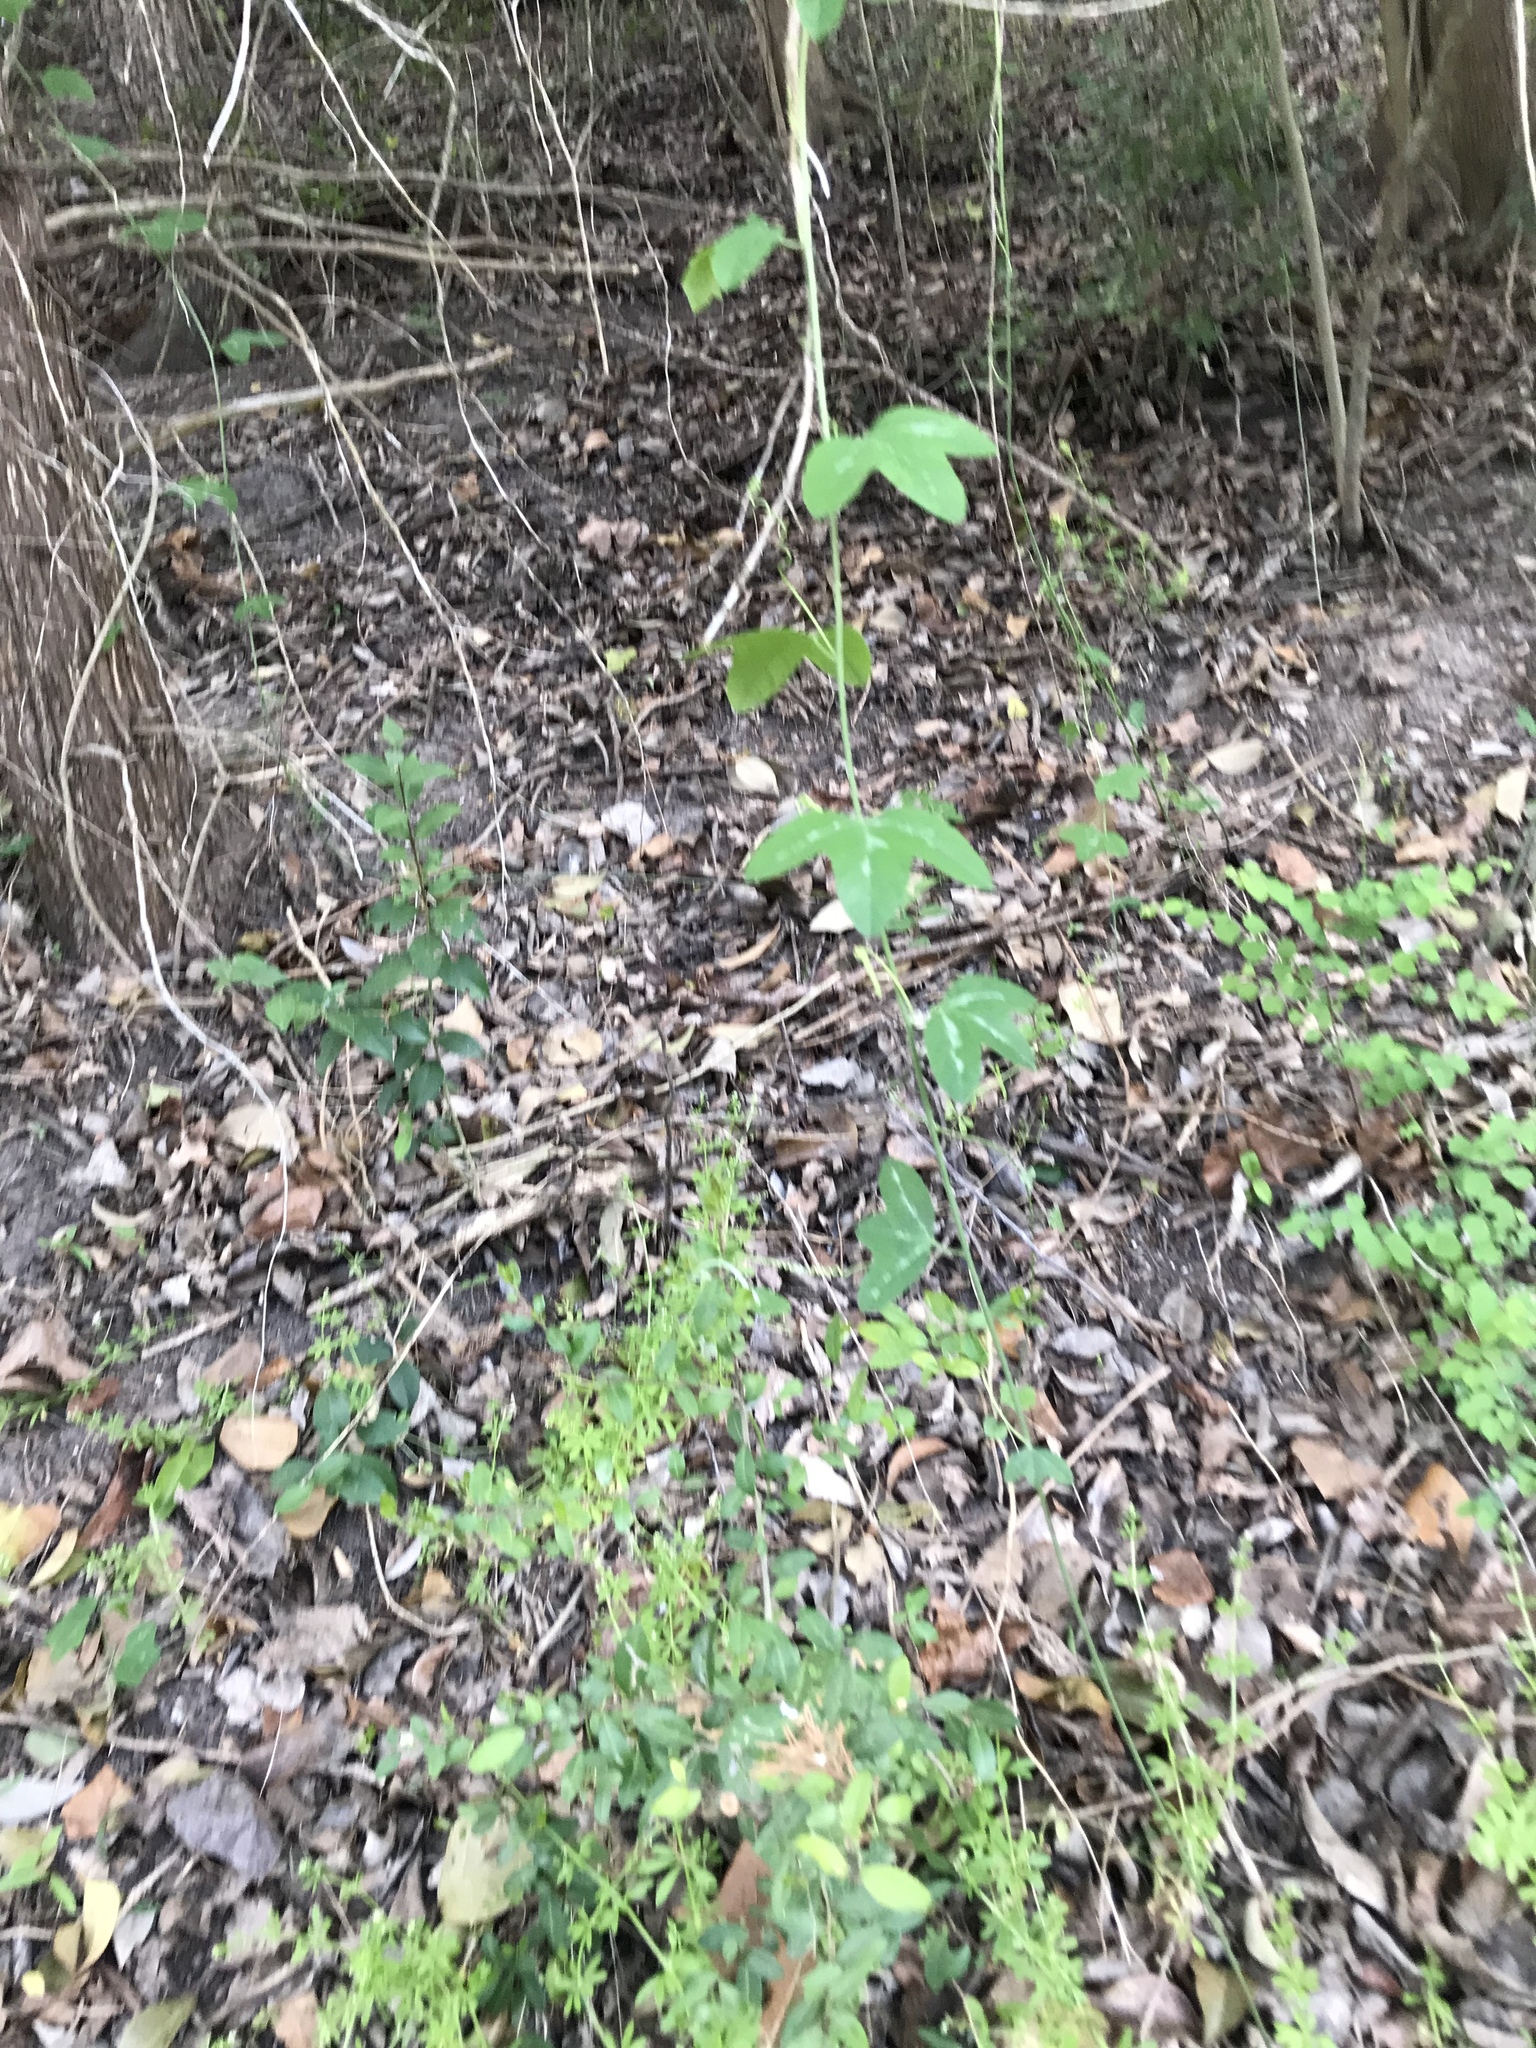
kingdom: Plantae
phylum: Tracheophyta
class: Magnoliopsida
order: Malpighiales
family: Passifloraceae
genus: Passiflora
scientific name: Passiflora lutea
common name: Yellow passionflower
